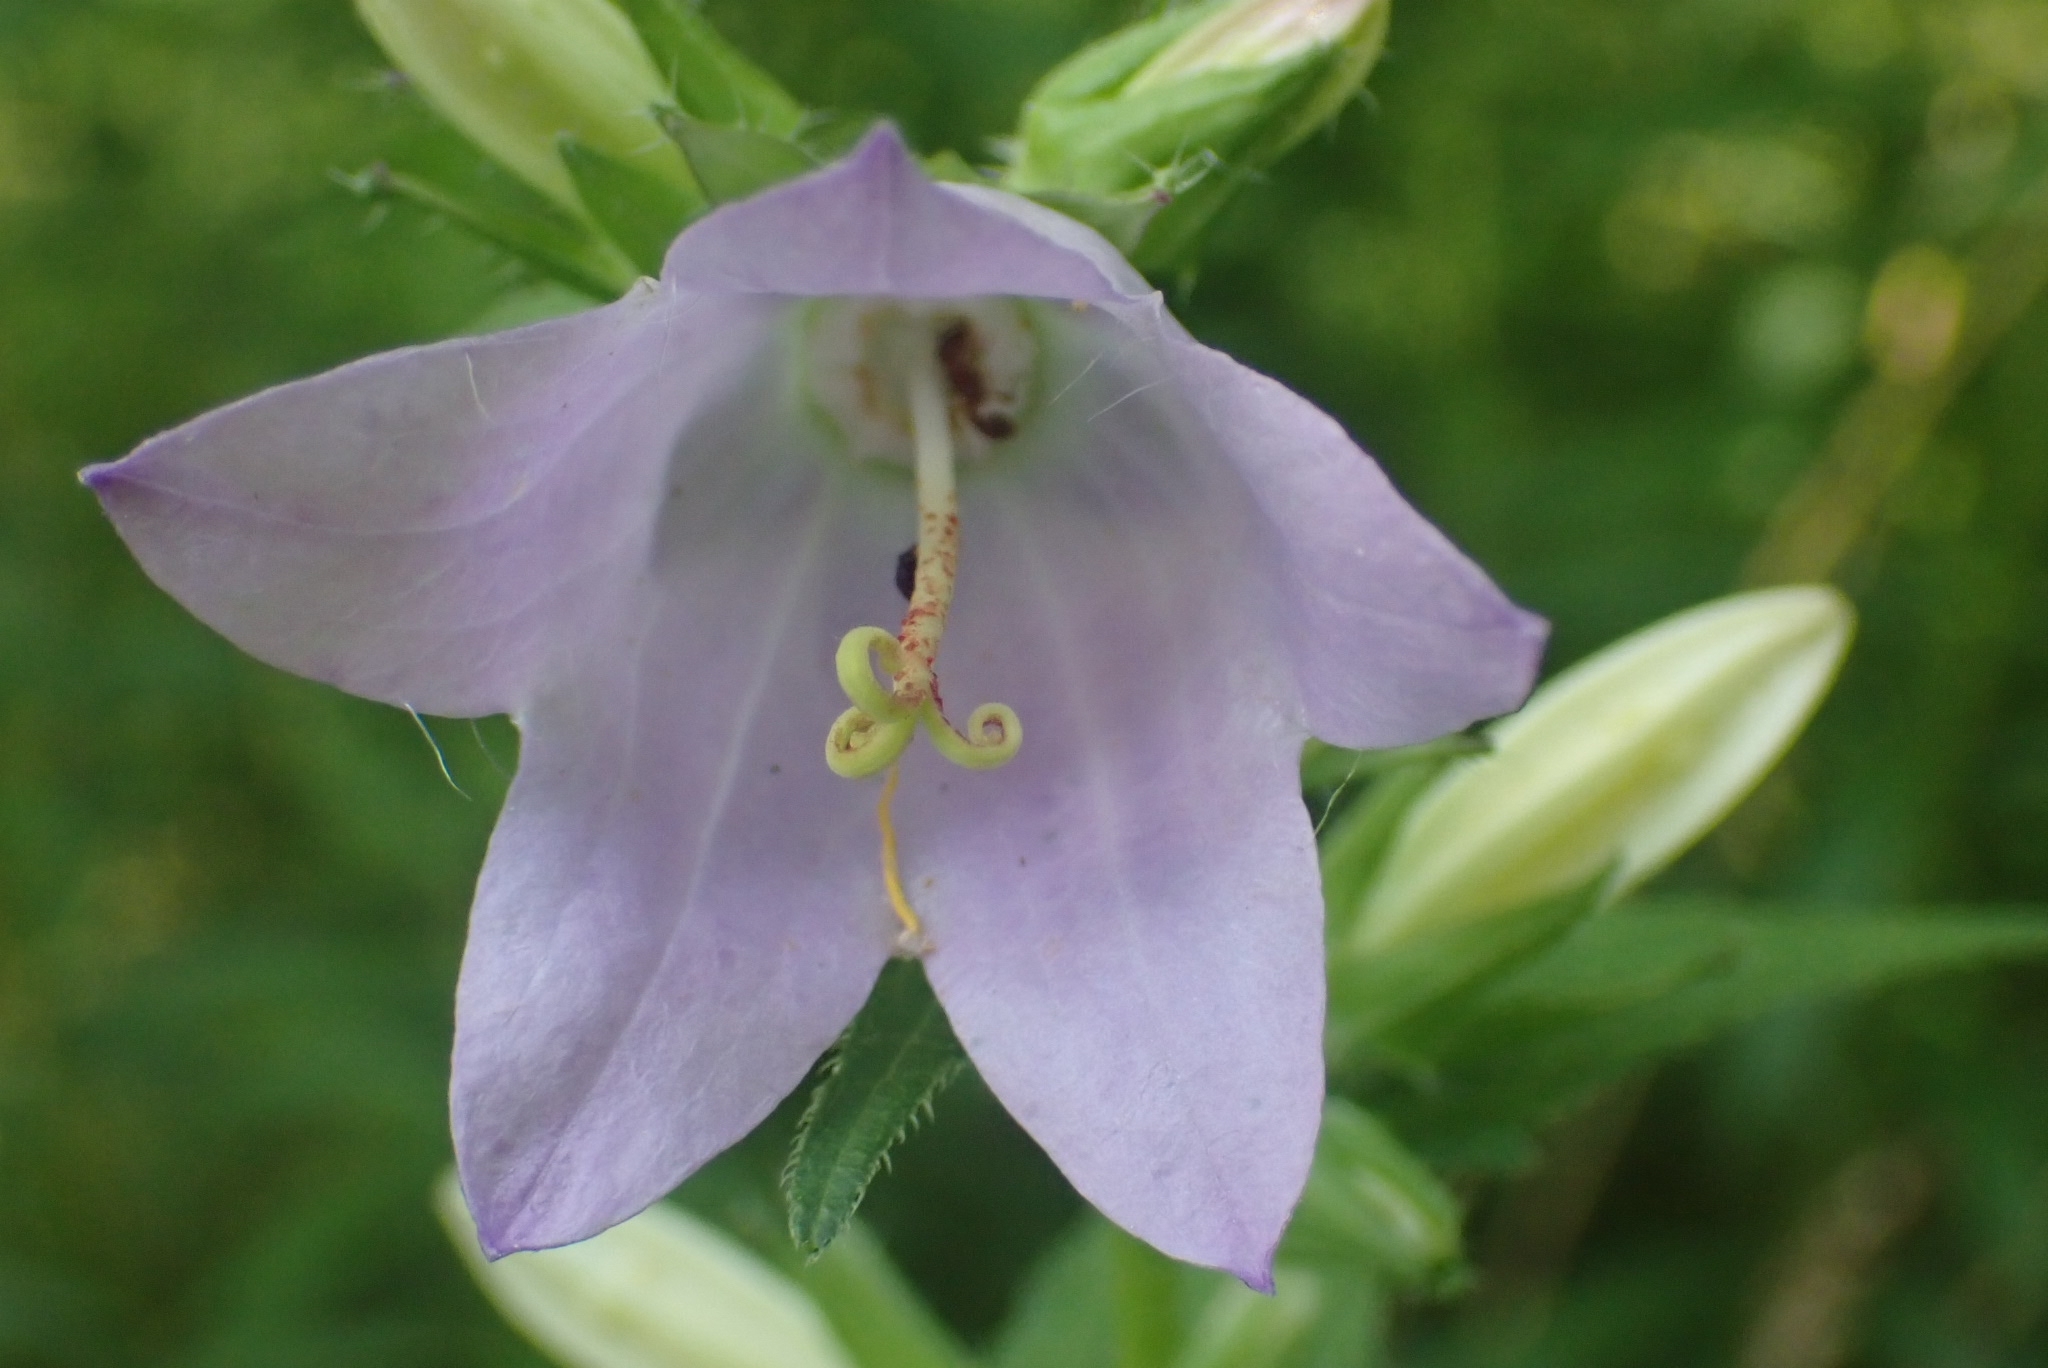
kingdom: Plantae
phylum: Tracheophyta
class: Magnoliopsida
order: Asterales
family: Campanulaceae
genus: Campanula
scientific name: Campanula trachelium
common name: Nettle-leaved bellflower
